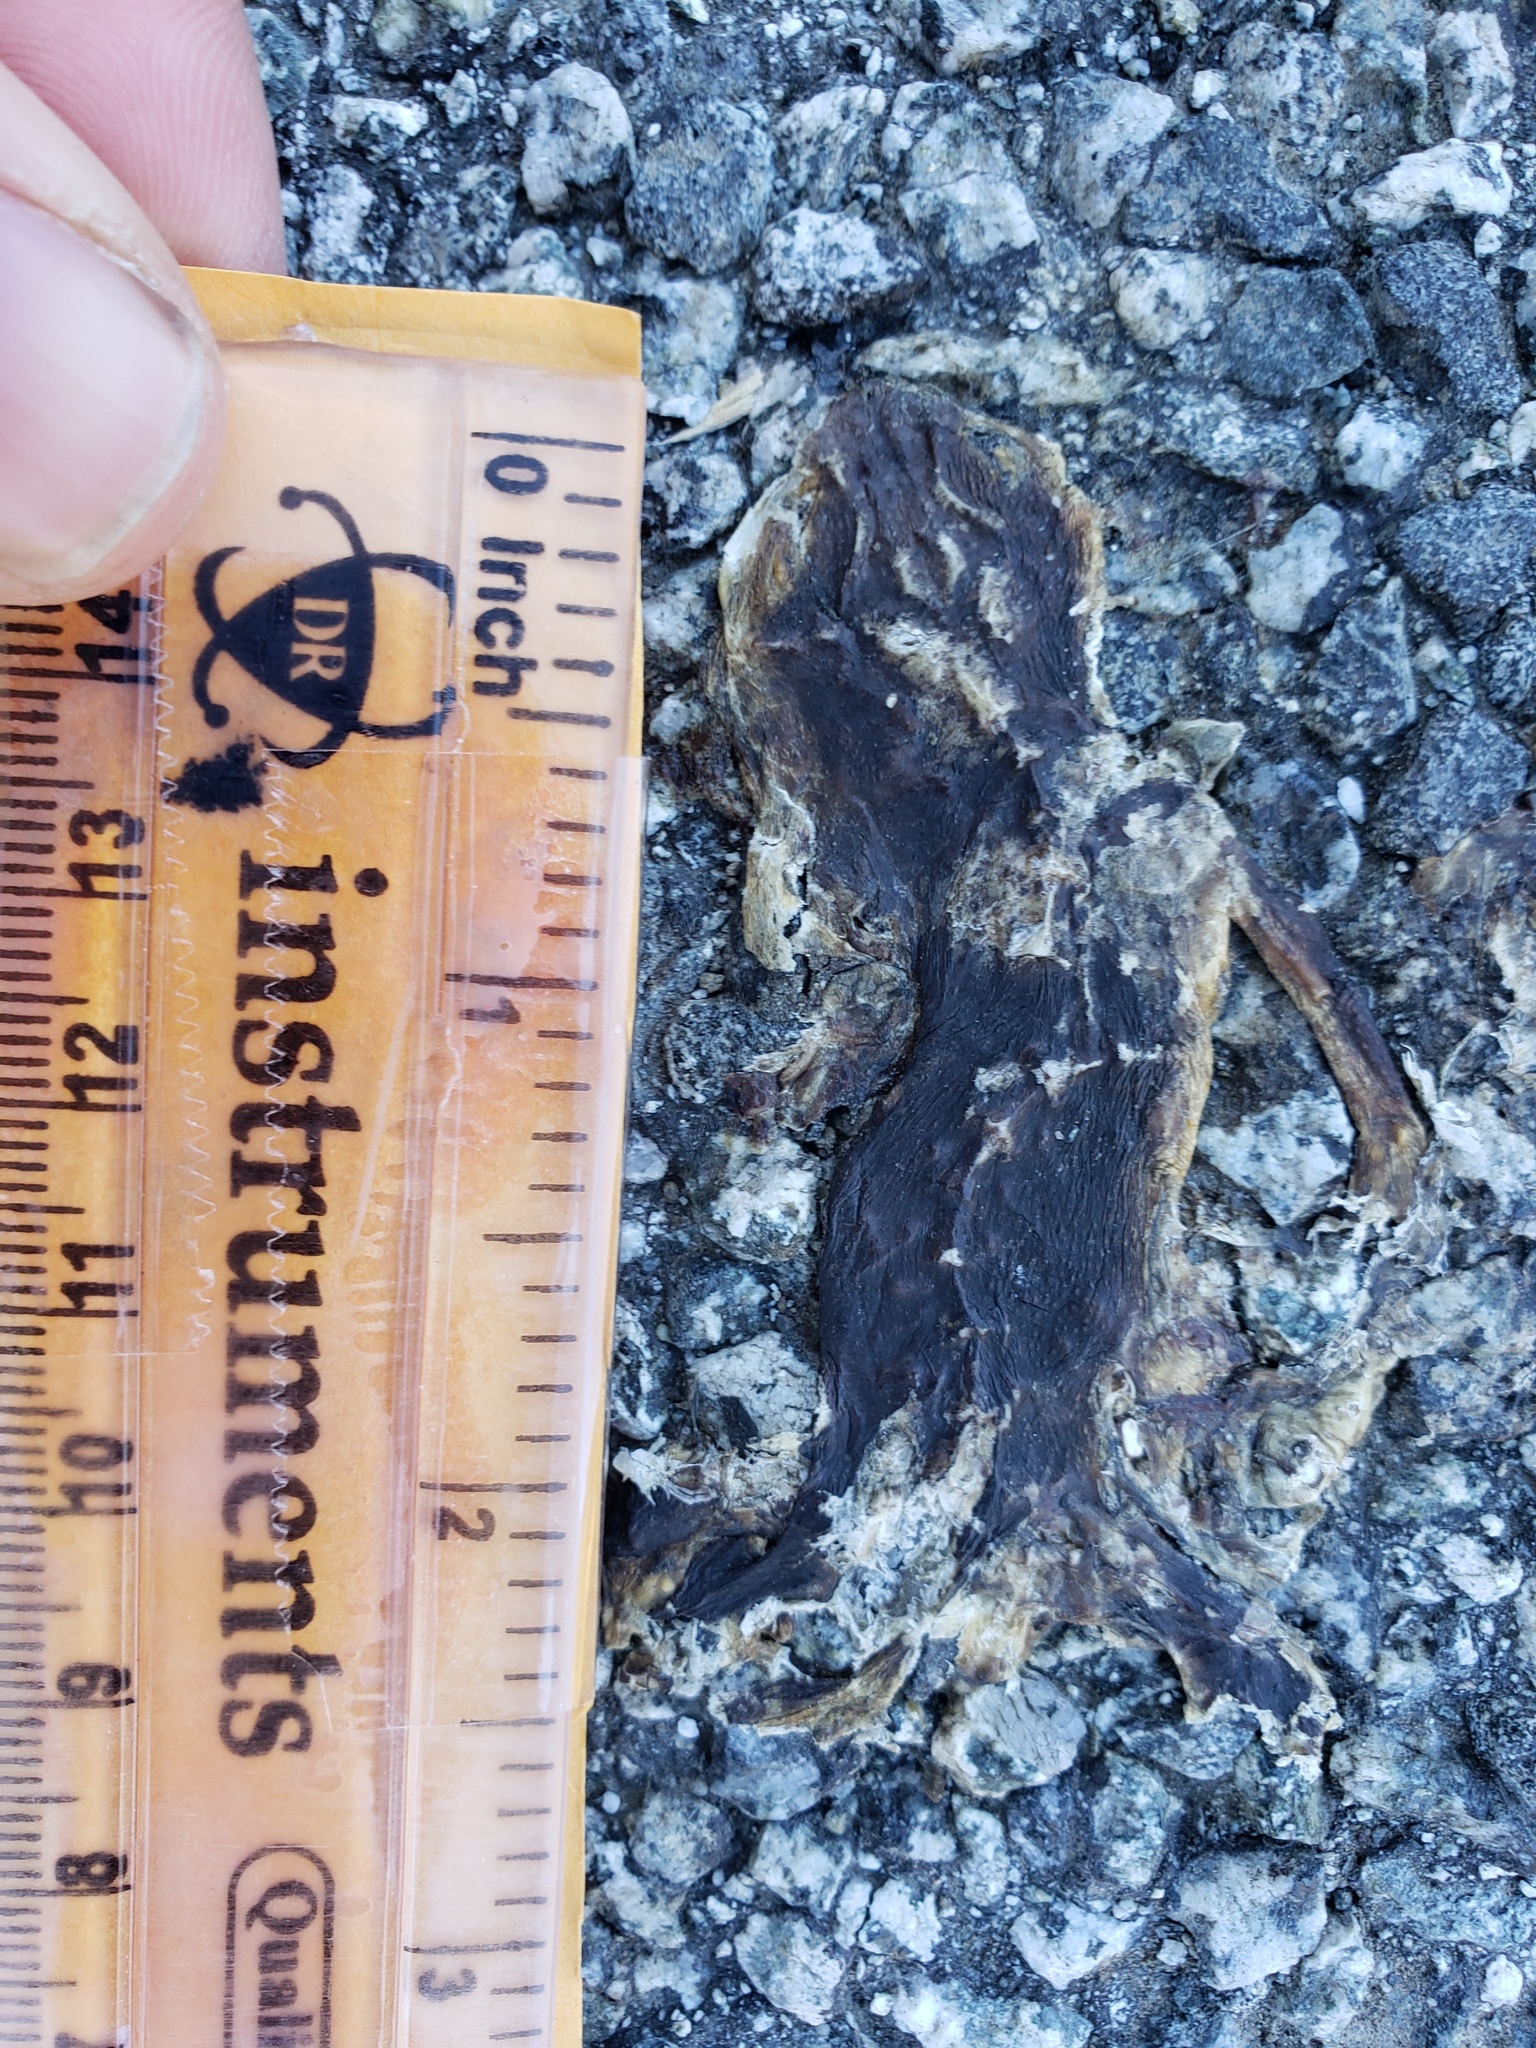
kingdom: Animalia
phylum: Chordata
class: Amphibia
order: Caudata
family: Salamandridae
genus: Taricha
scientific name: Taricha
